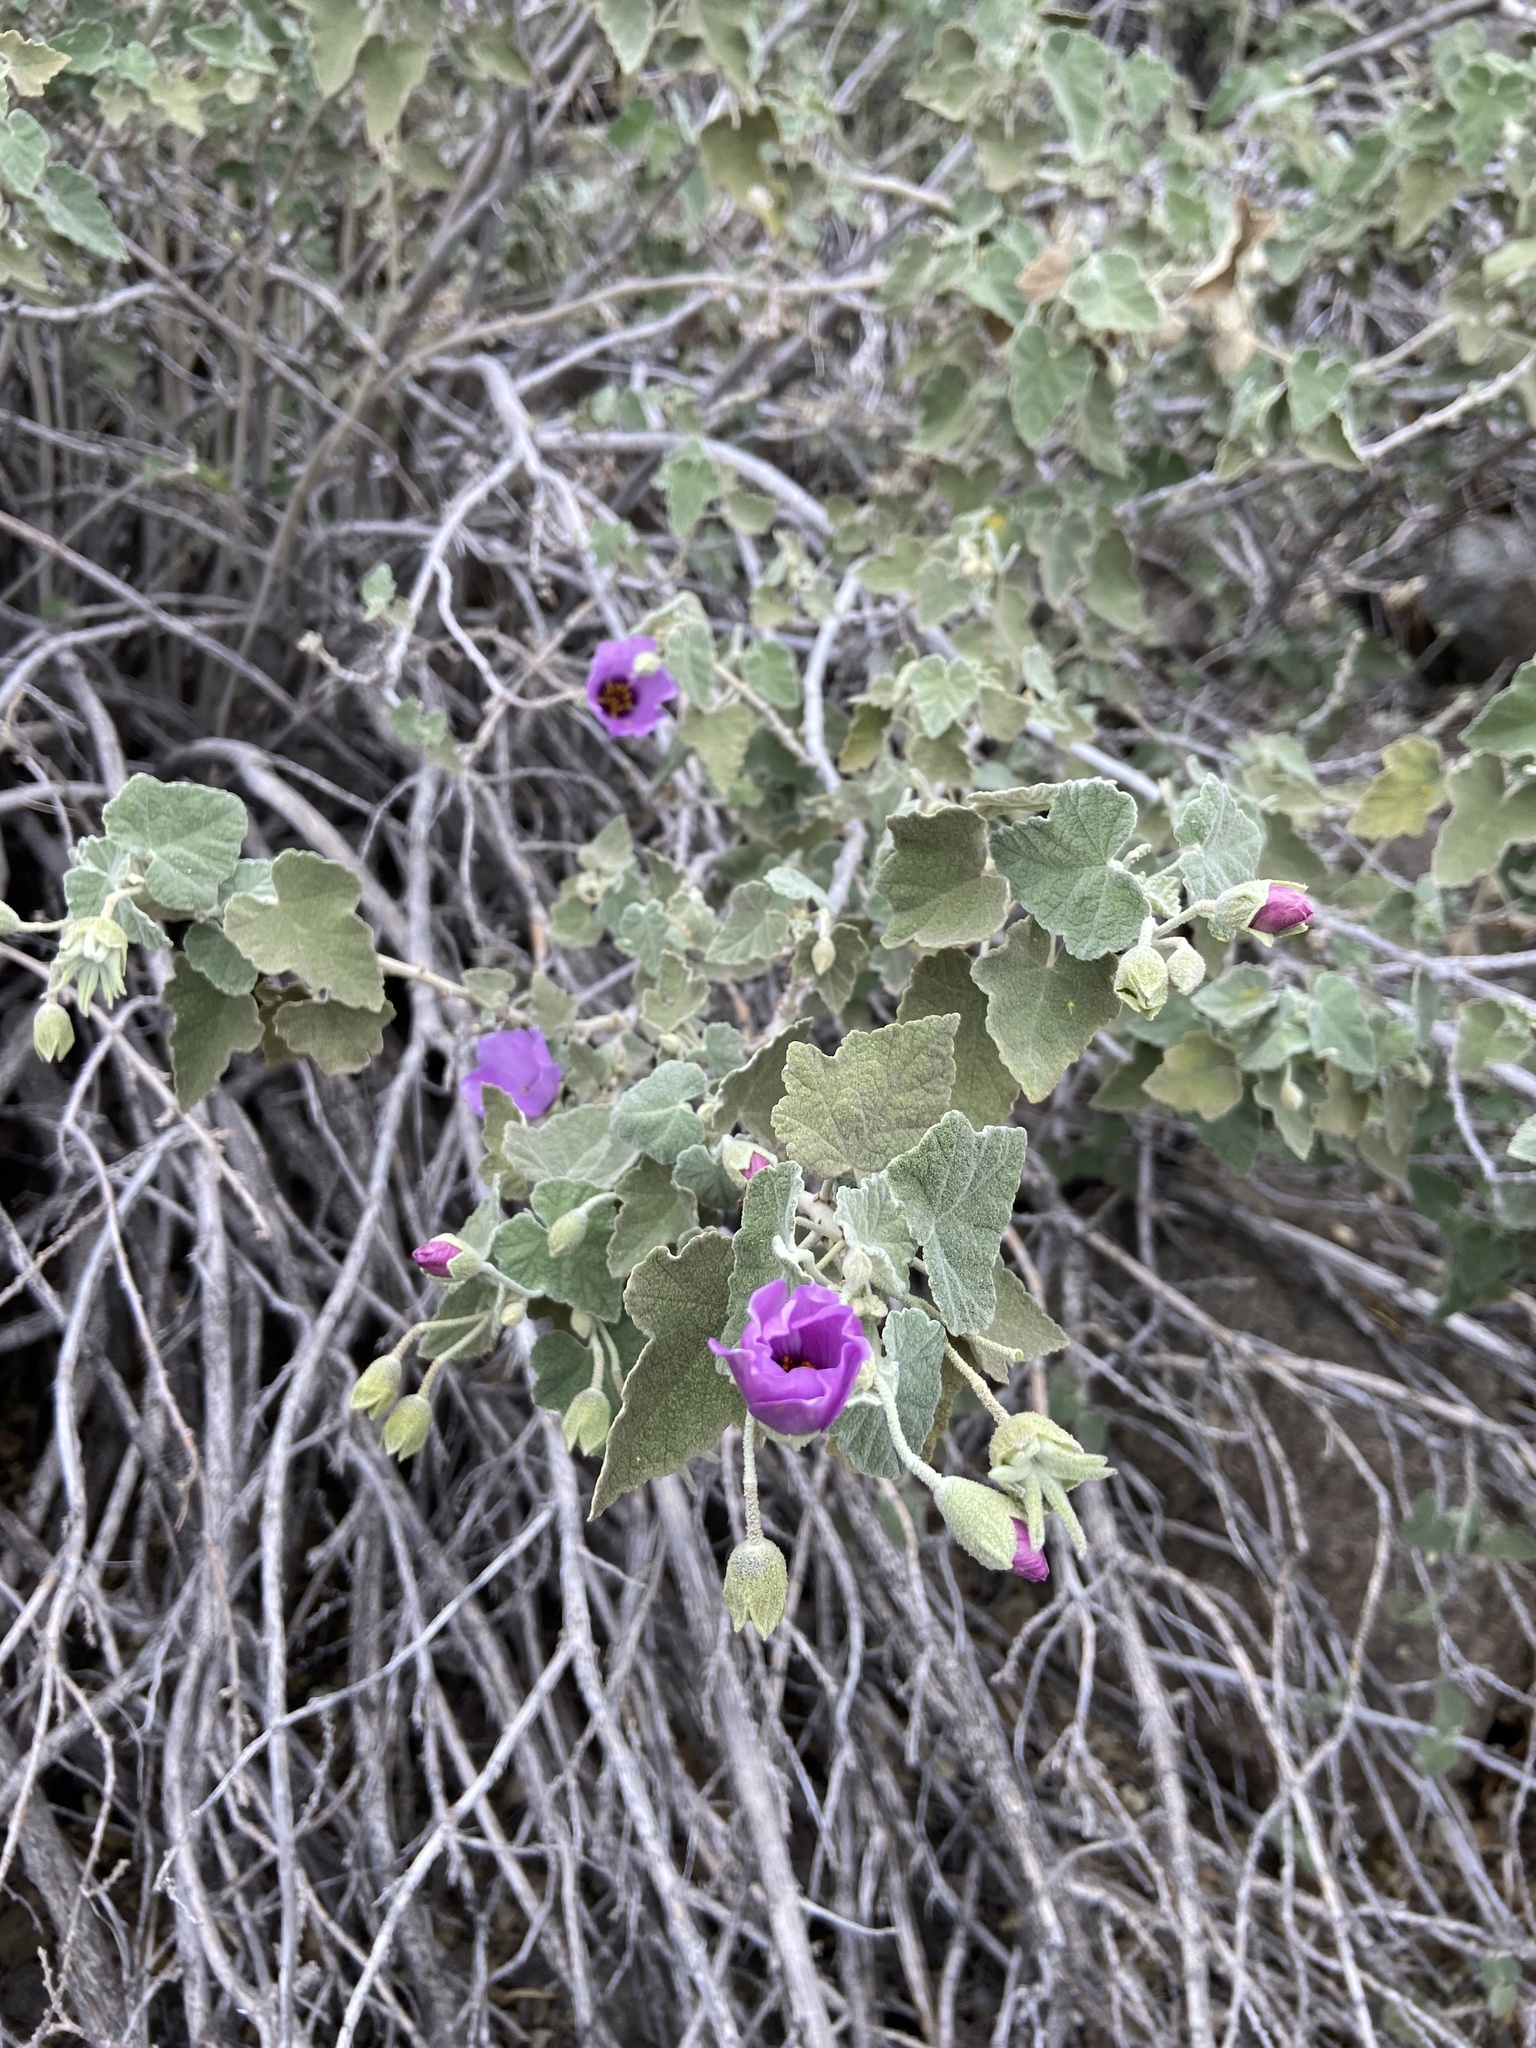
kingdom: Plantae
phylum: Tracheophyta
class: Magnoliopsida
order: Malvales
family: Malvaceae
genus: Corynabutilon
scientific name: Corynabutilon ceratocarpum
